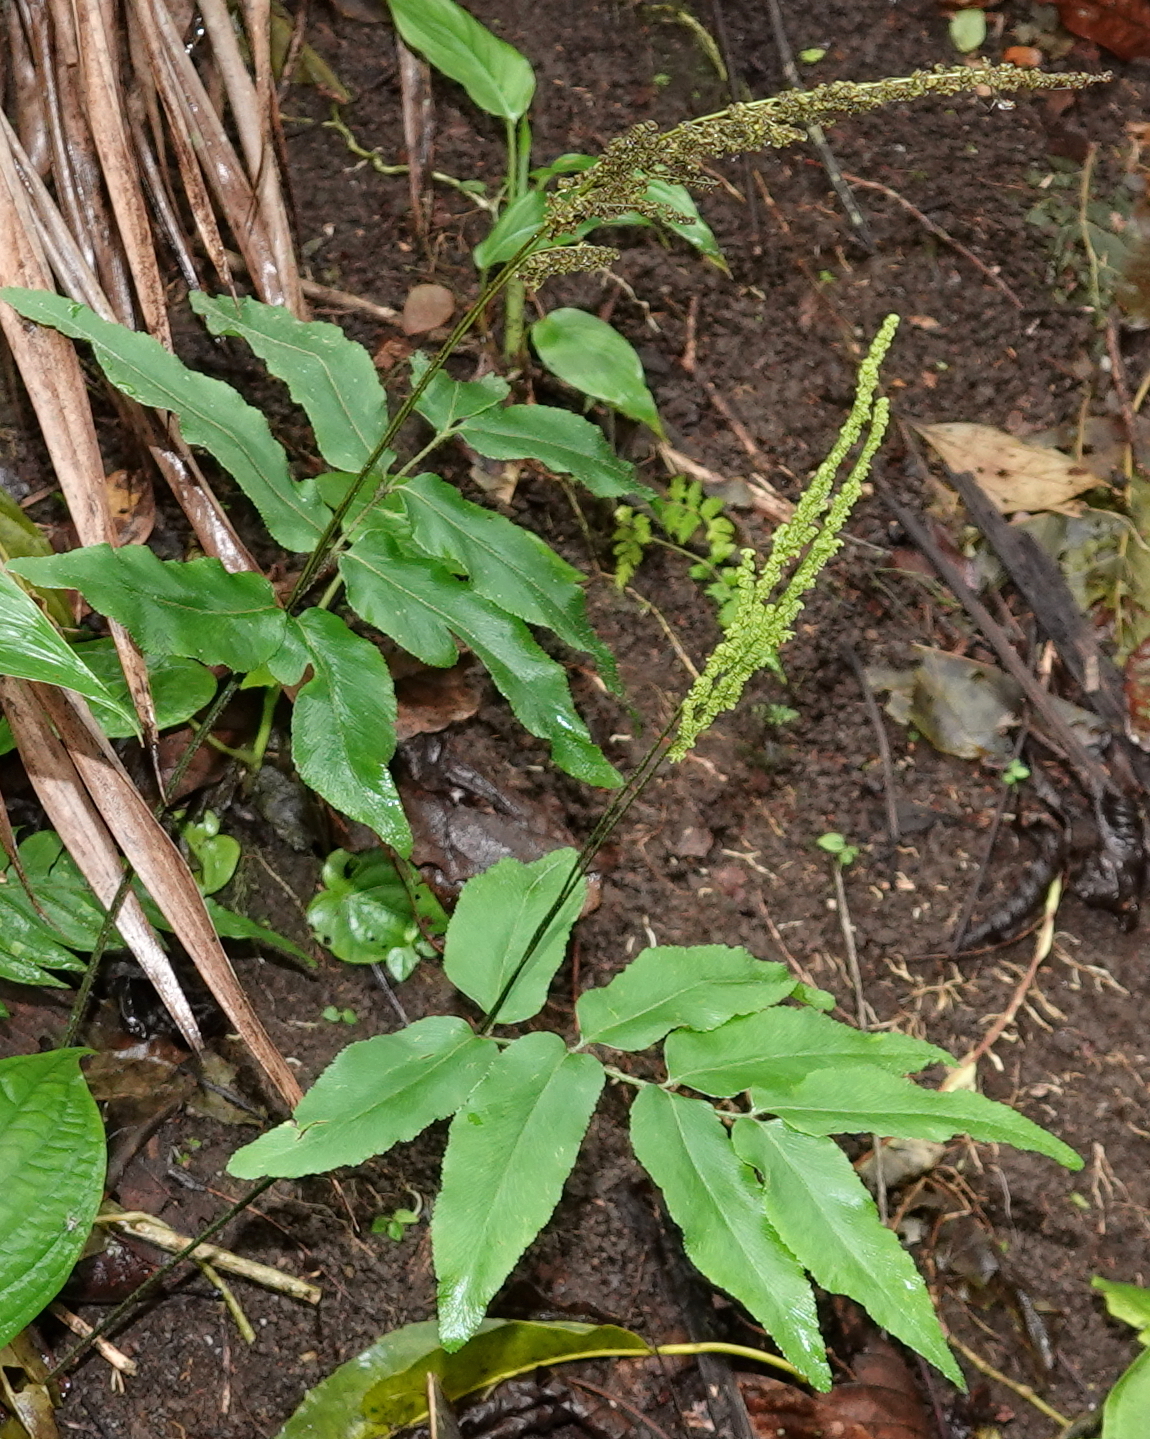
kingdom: Plantae
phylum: Tracheophyta
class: Polypodiopsida
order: Schizaeales
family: Anemiaceae
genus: Anemia
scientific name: Anemia phyllitidis
